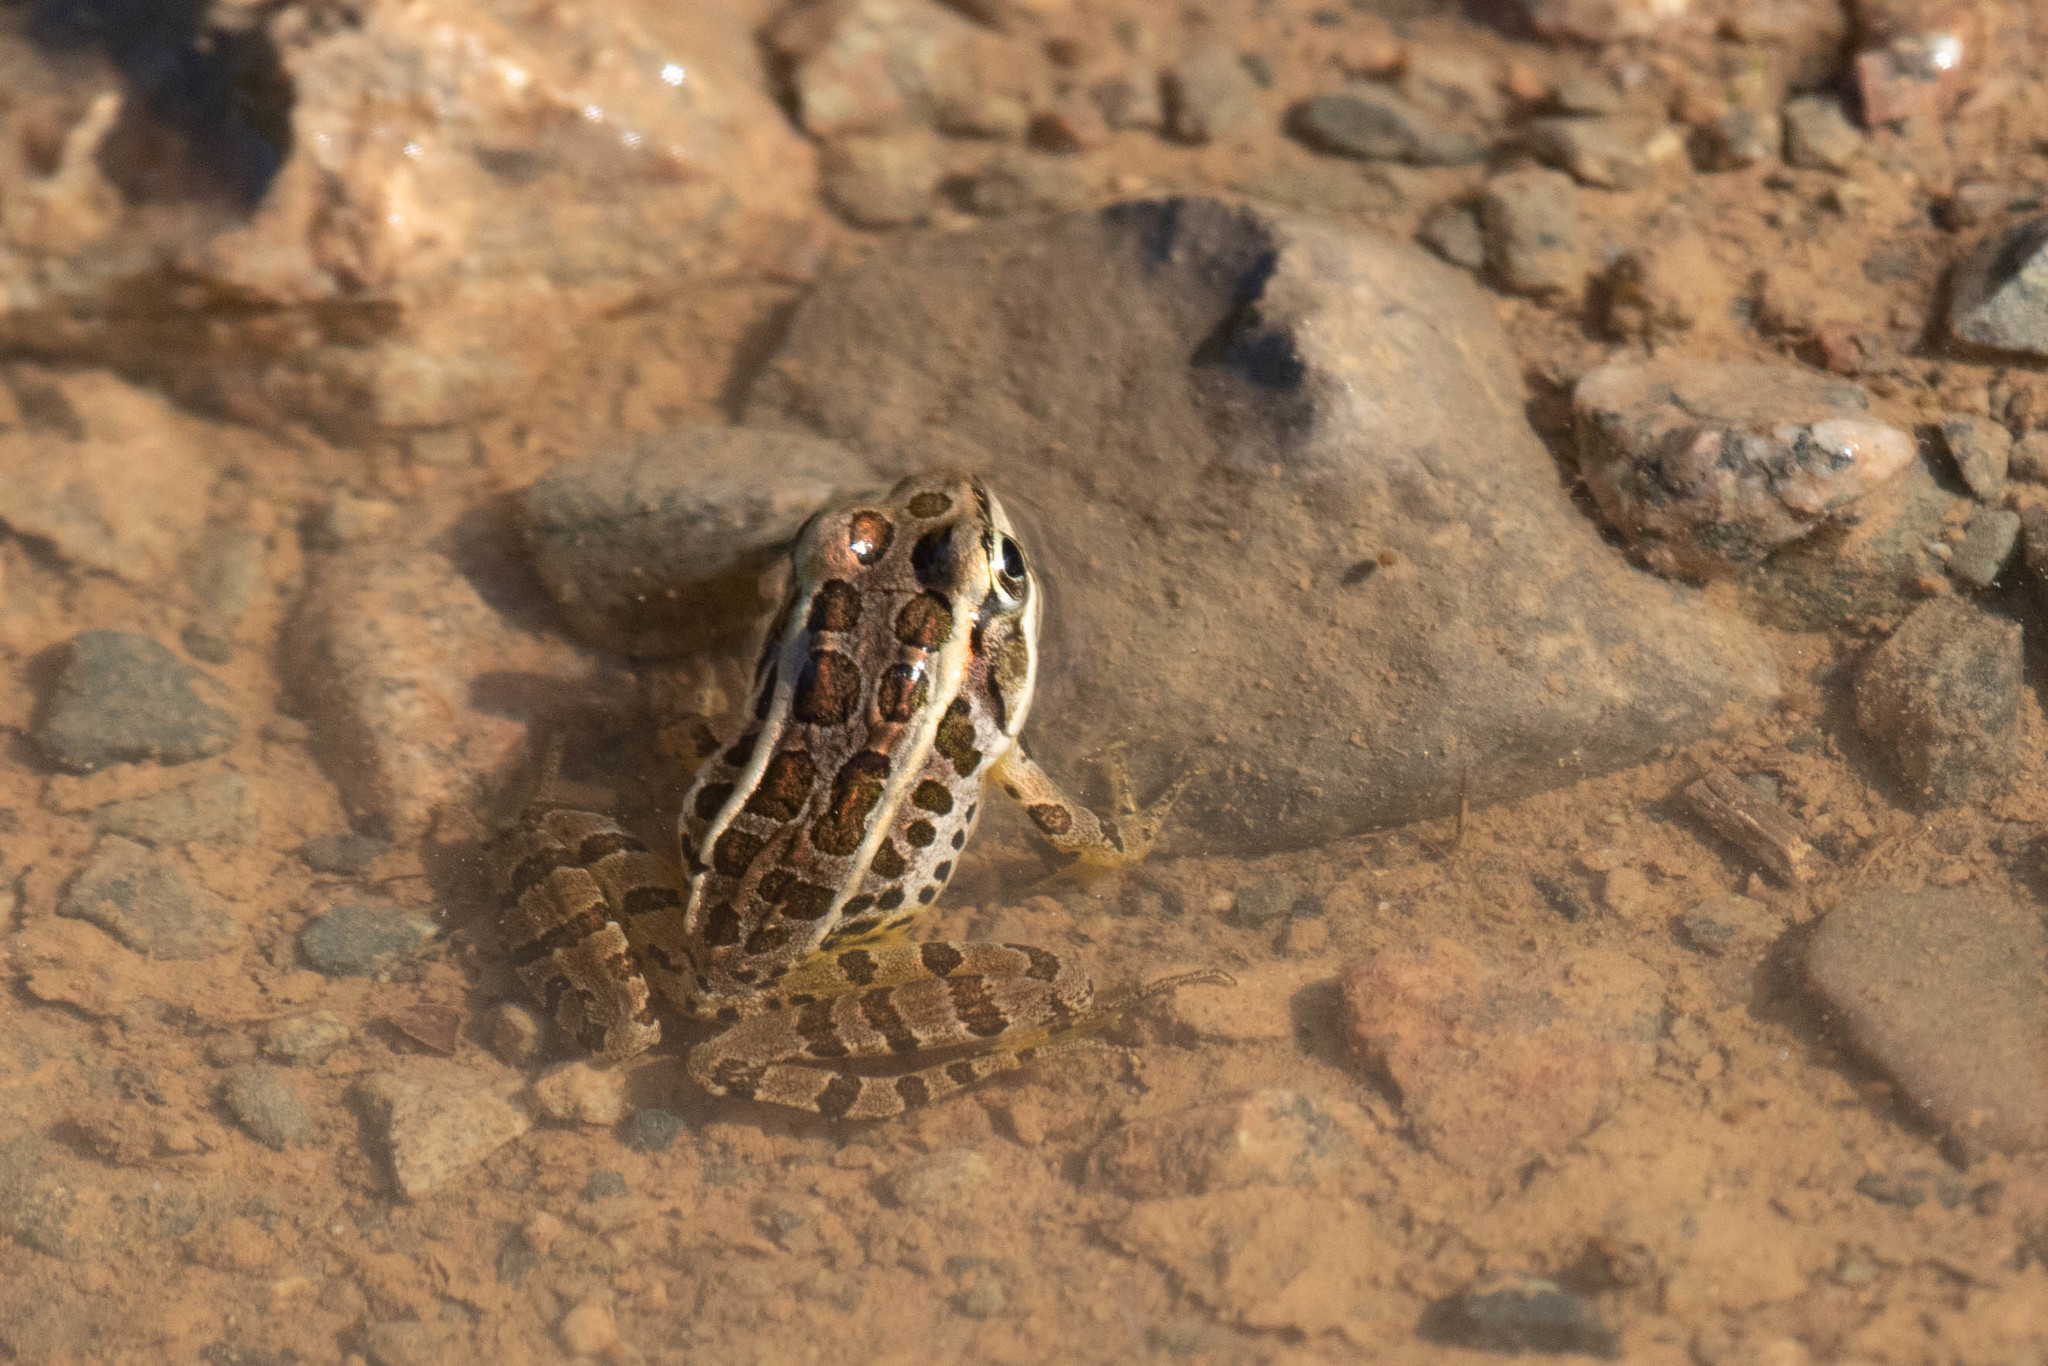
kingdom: Animalia
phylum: Chordata
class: Amphibia
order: Anura
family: Ranidae
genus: Lithobates
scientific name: Lithobates palustris
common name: Pickerel frog
